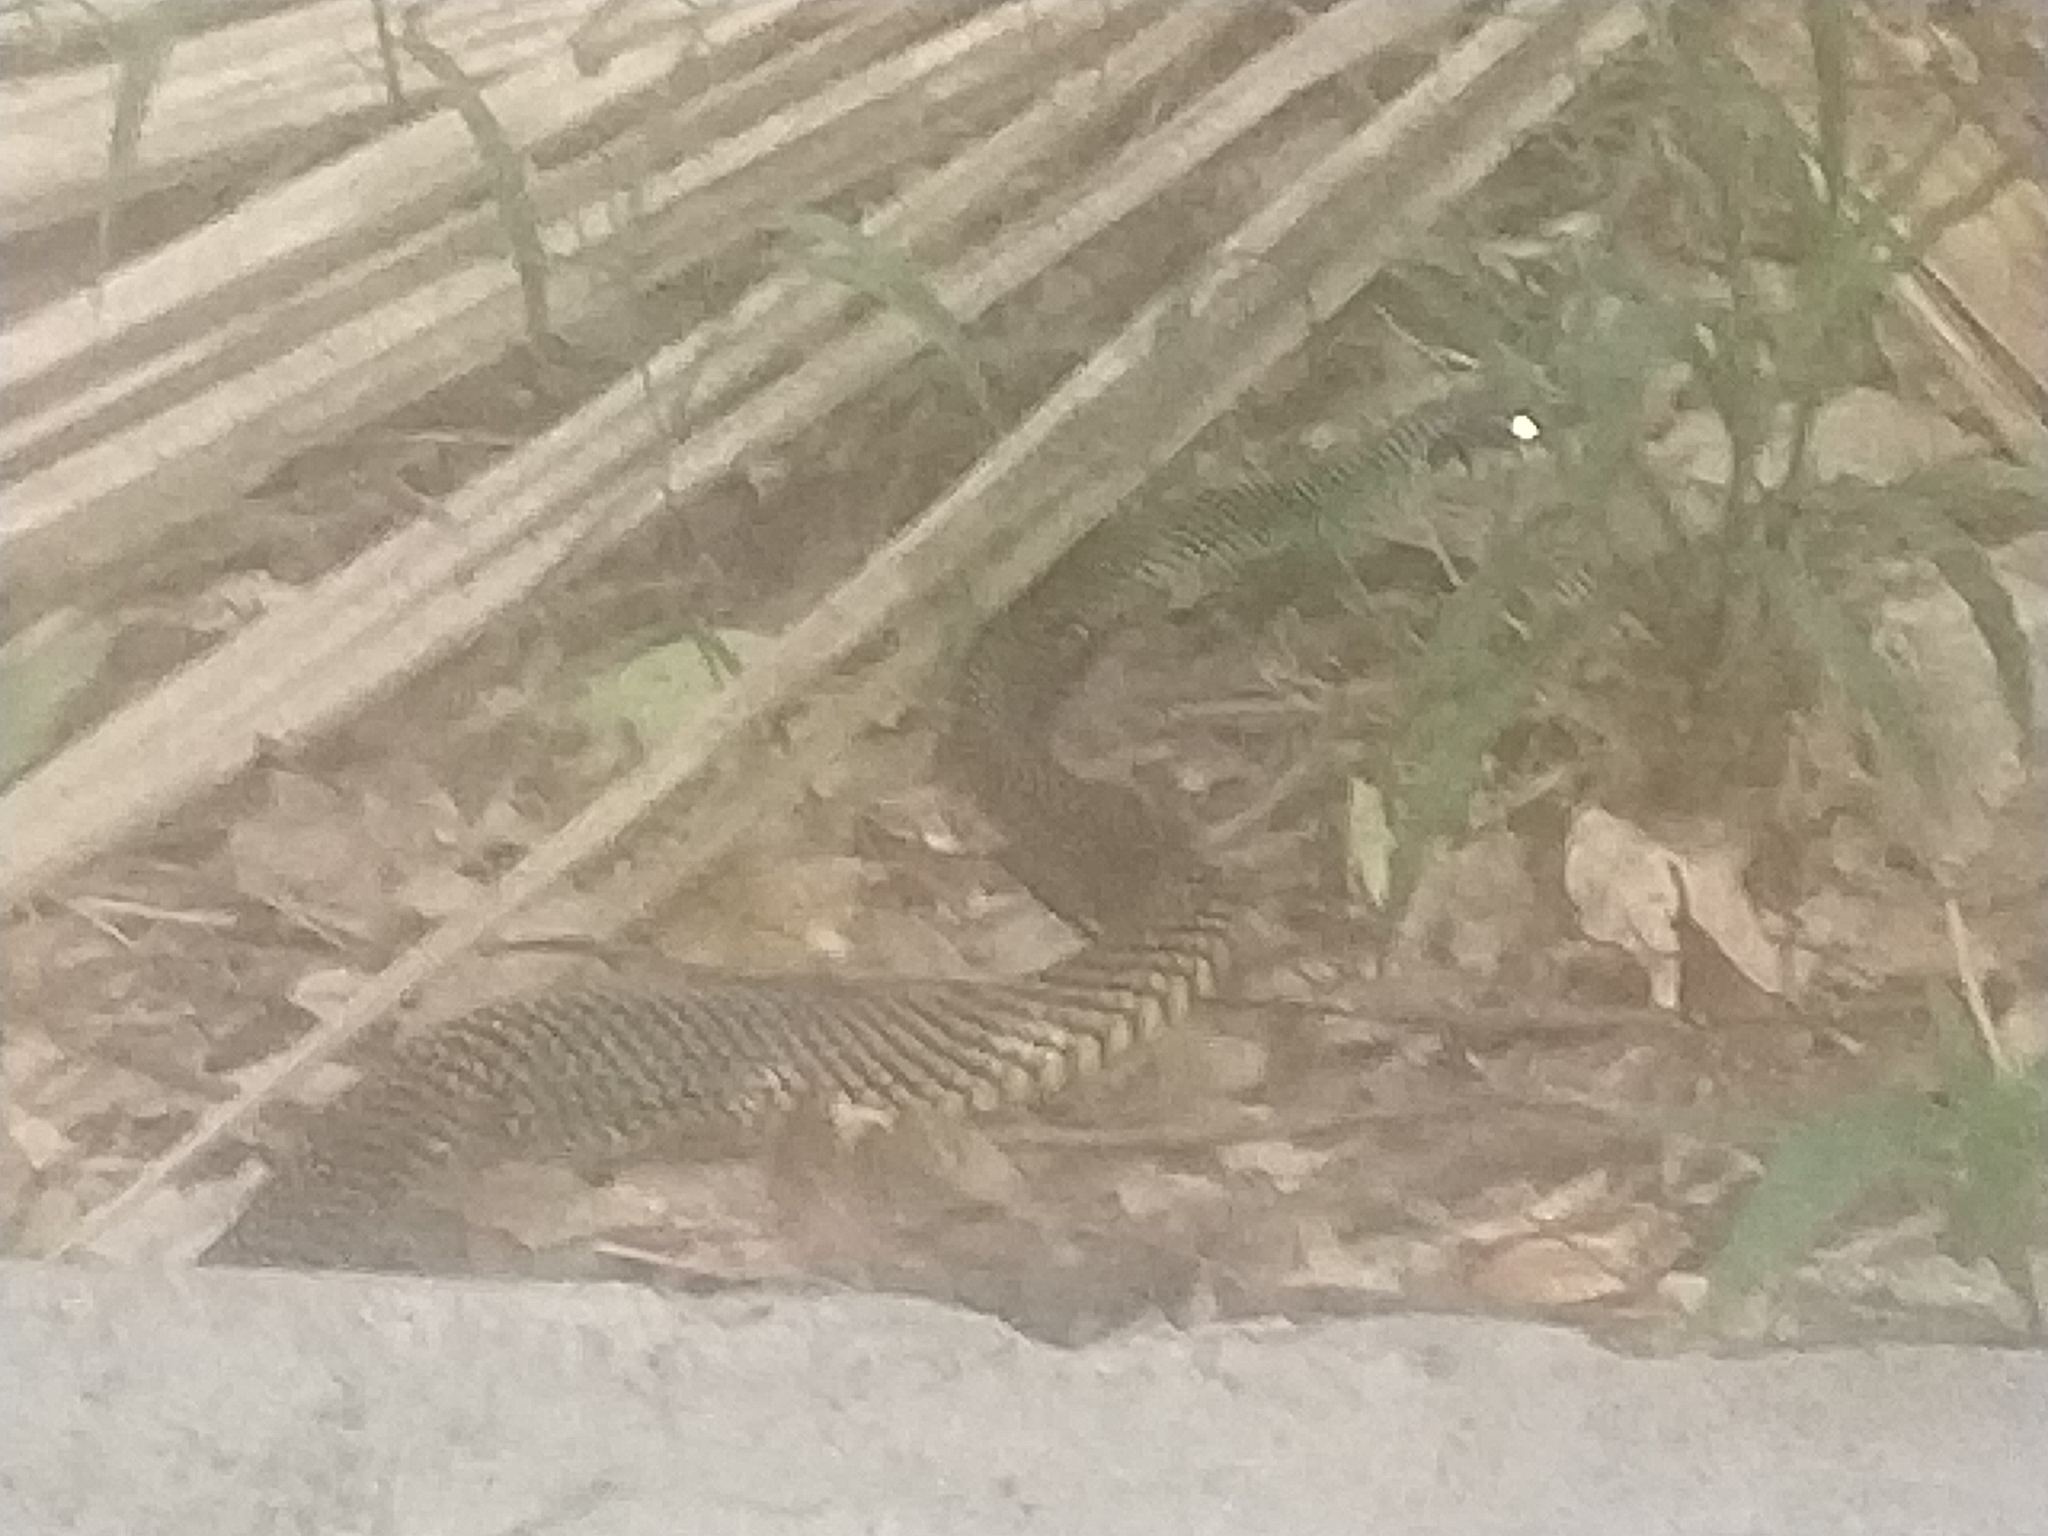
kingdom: Animalia
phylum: Chordata
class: Squamata
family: Colubridae
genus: Drymobius
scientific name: Drymobius margaritiferus
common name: Central american speckled racer
